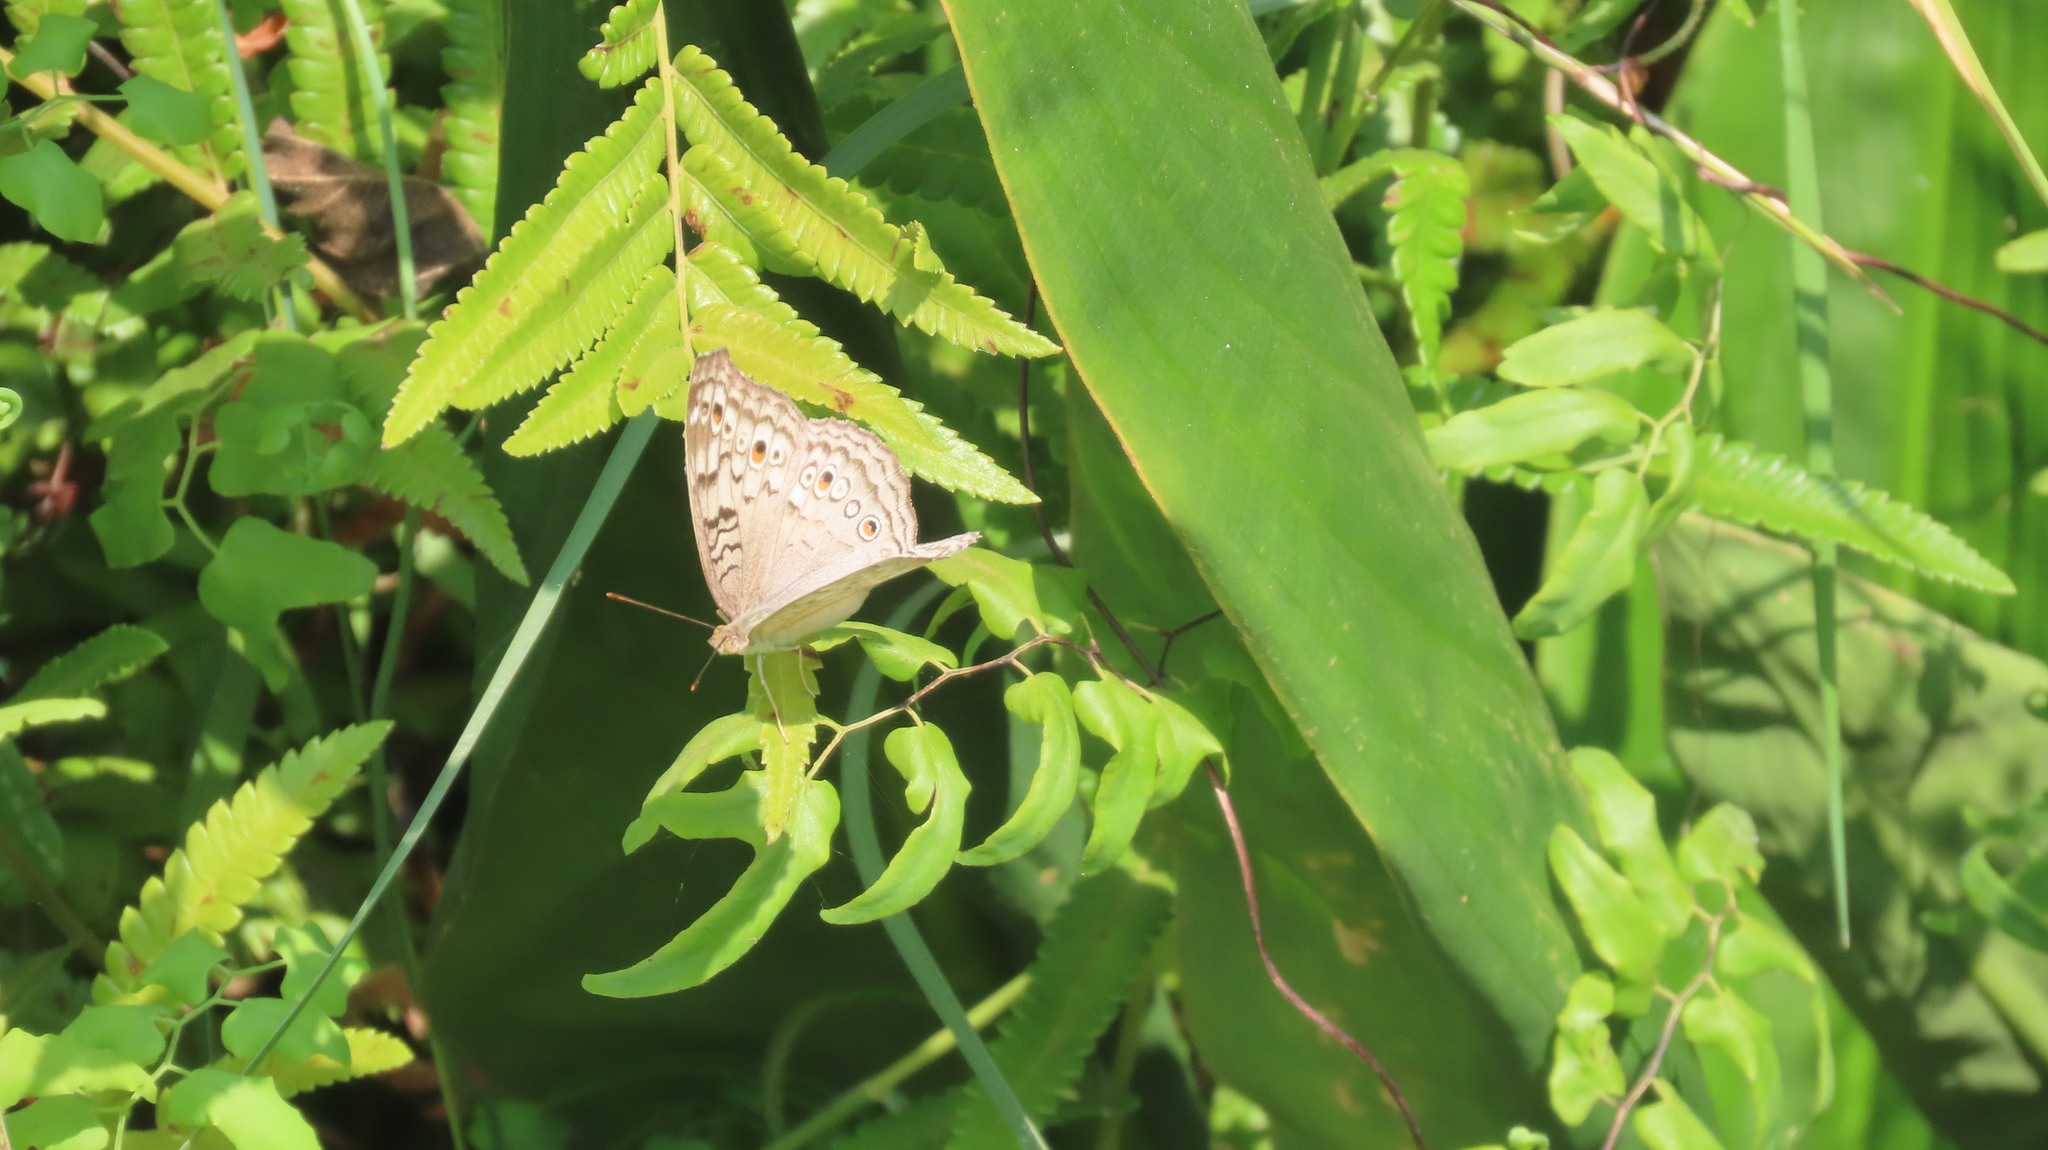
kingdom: Animalia
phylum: Arthropoda
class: Insecta
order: Lepidoptera
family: Nymphalidae
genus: Junonia
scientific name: Junonia atlites
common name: Grey pansy
